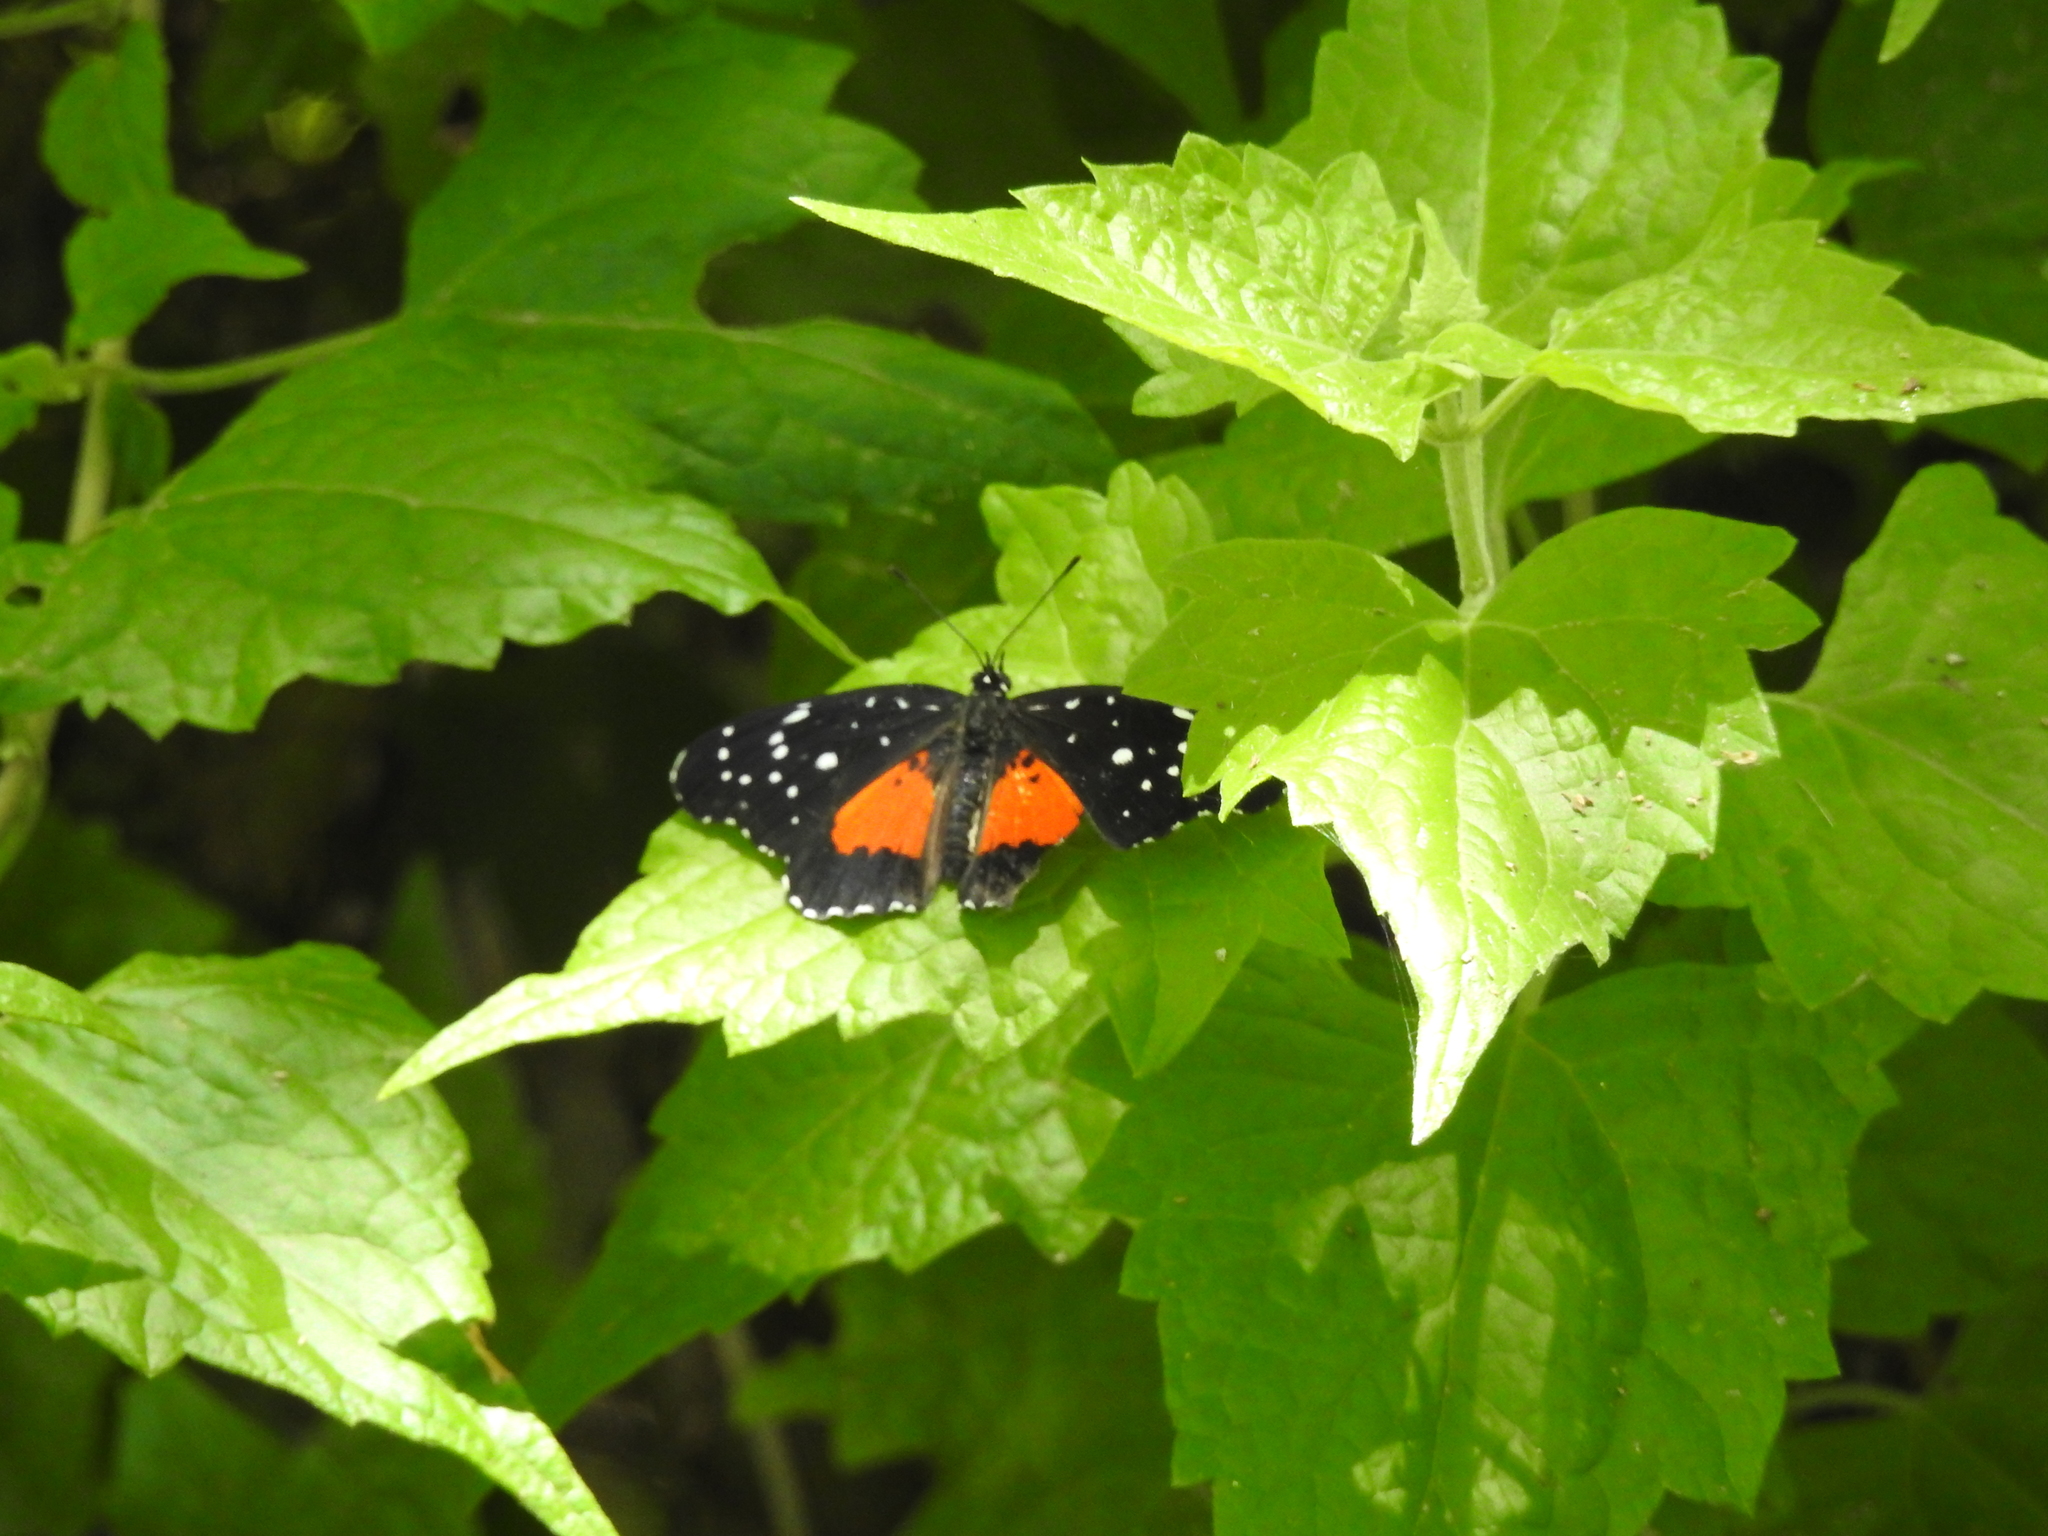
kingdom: Animalia
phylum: Arthropoda
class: Insecta
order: Lepidoptera
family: Nymphalidae
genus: Chlosyne
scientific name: Chlosyne janais
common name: Crimson patch
